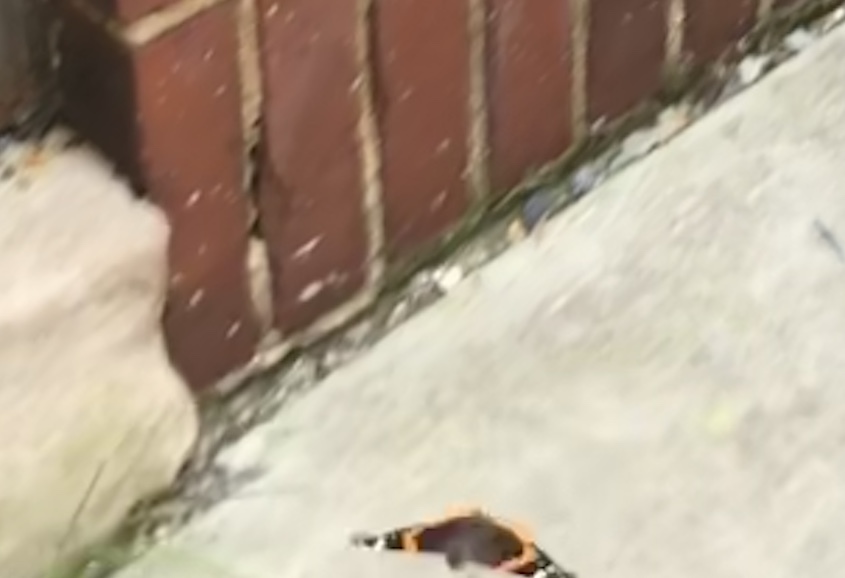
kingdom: Animalia
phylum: Arthropoda
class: Insecta
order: Lepidoptera
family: Nymphalidae
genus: Vanessa
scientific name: Vanessa atalanta
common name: Red admiral
